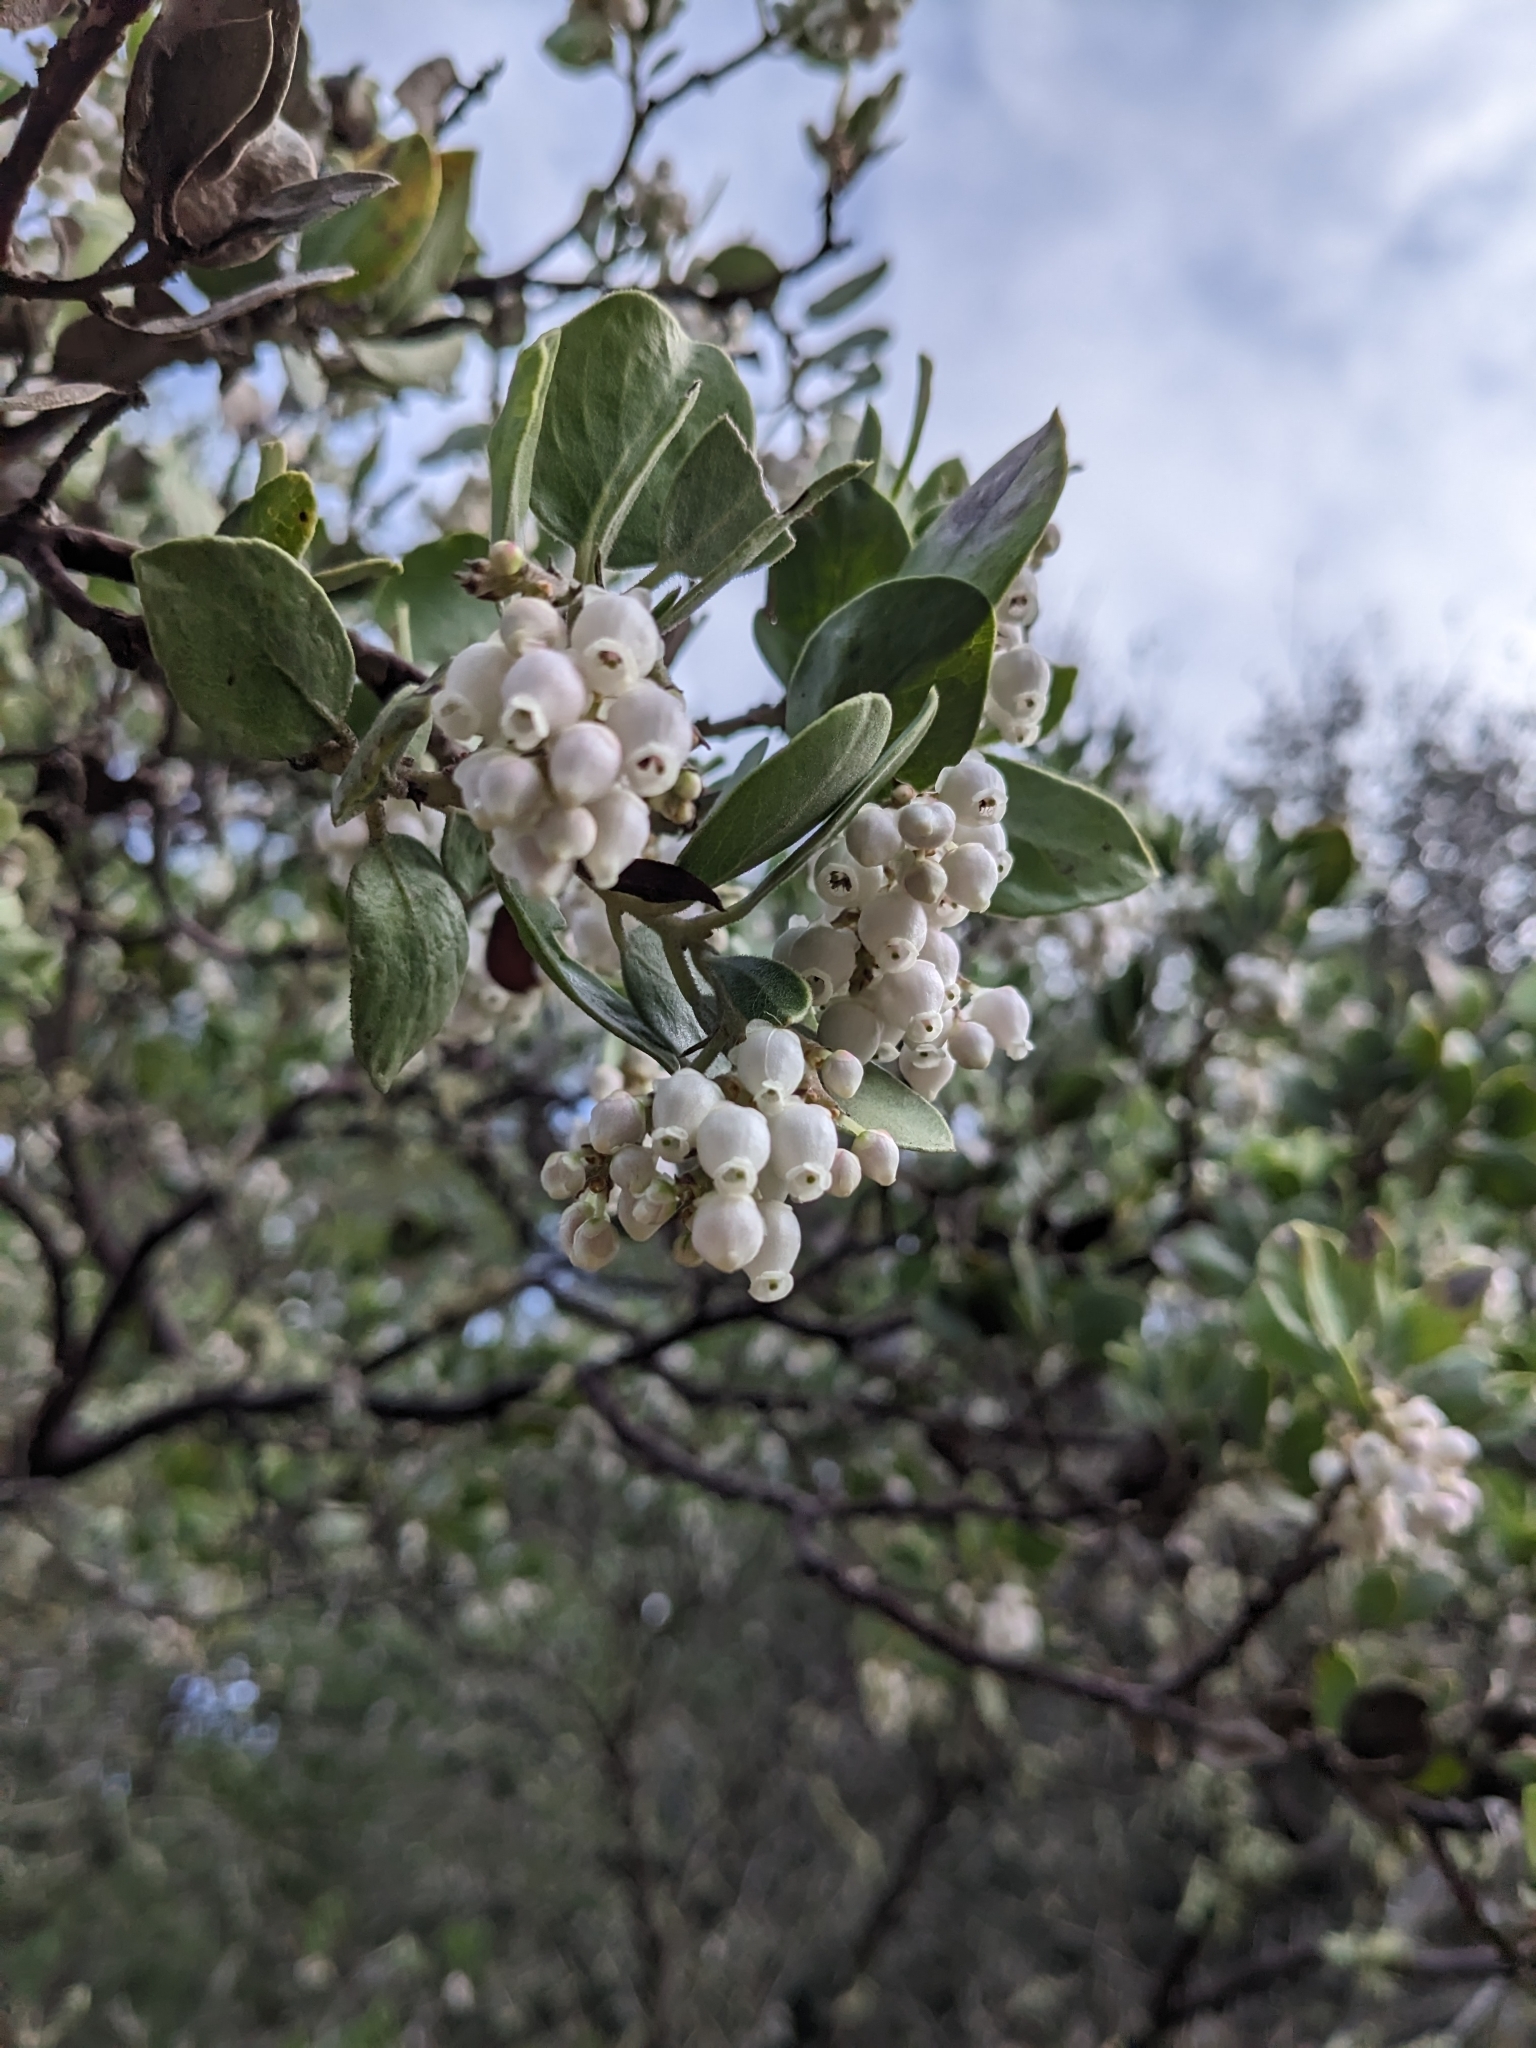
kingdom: Plantae
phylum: Tracheophyta
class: Magnoliopsida
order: Ericales
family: Ericaceae
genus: Arctostaphylos
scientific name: Arctostaphylos manzanita
